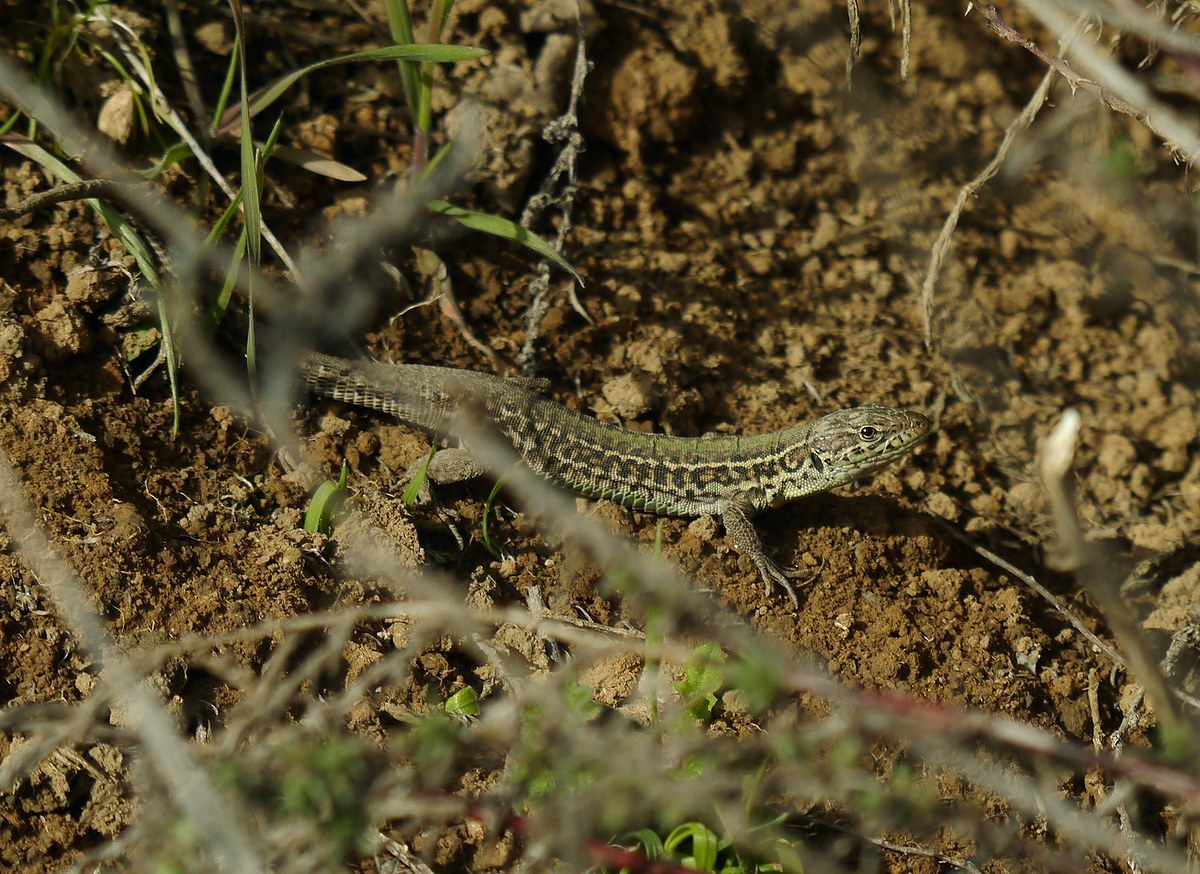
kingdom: Animalia
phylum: Chordata
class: Squamata
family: Lacertidae
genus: Podarcis
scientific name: Podarcis tauricus
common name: Balkan wall lizard
